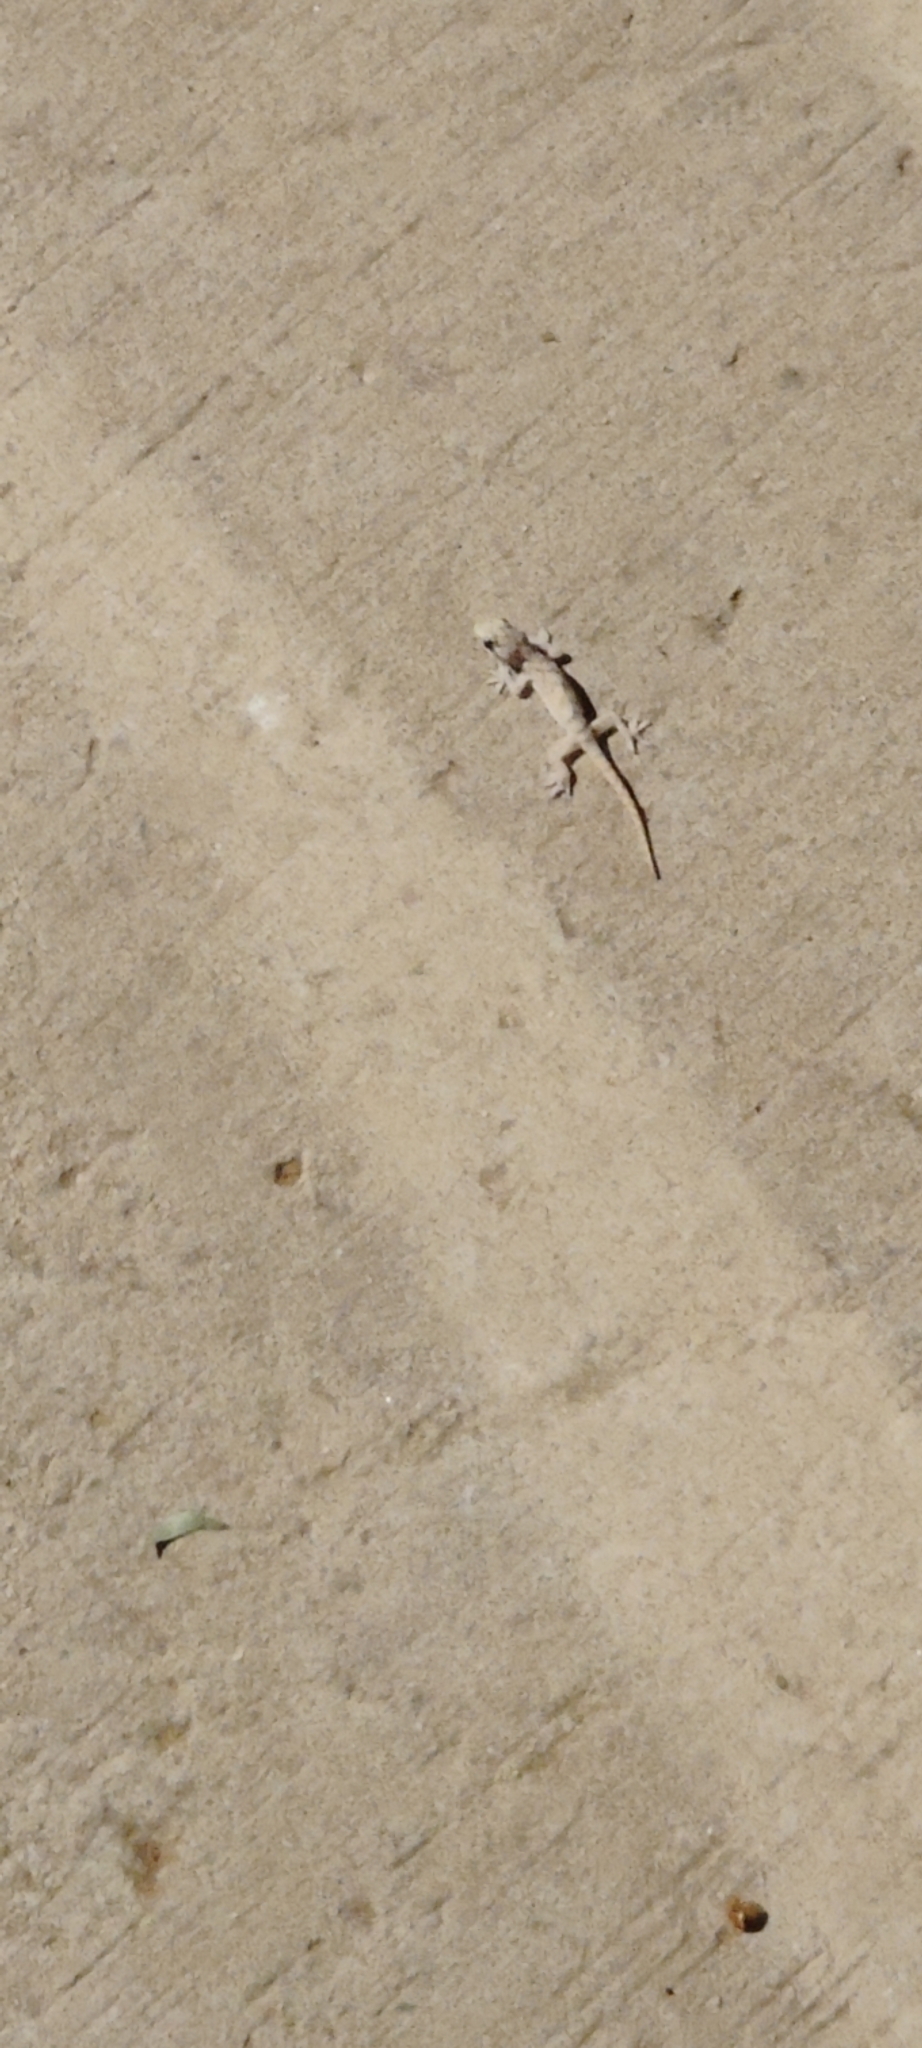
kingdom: Animalia
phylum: Chordata
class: Squamata
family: Gekkonidae
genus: Hemidactylus
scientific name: Hemidactylus flaviviridis
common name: Northern house gecko
